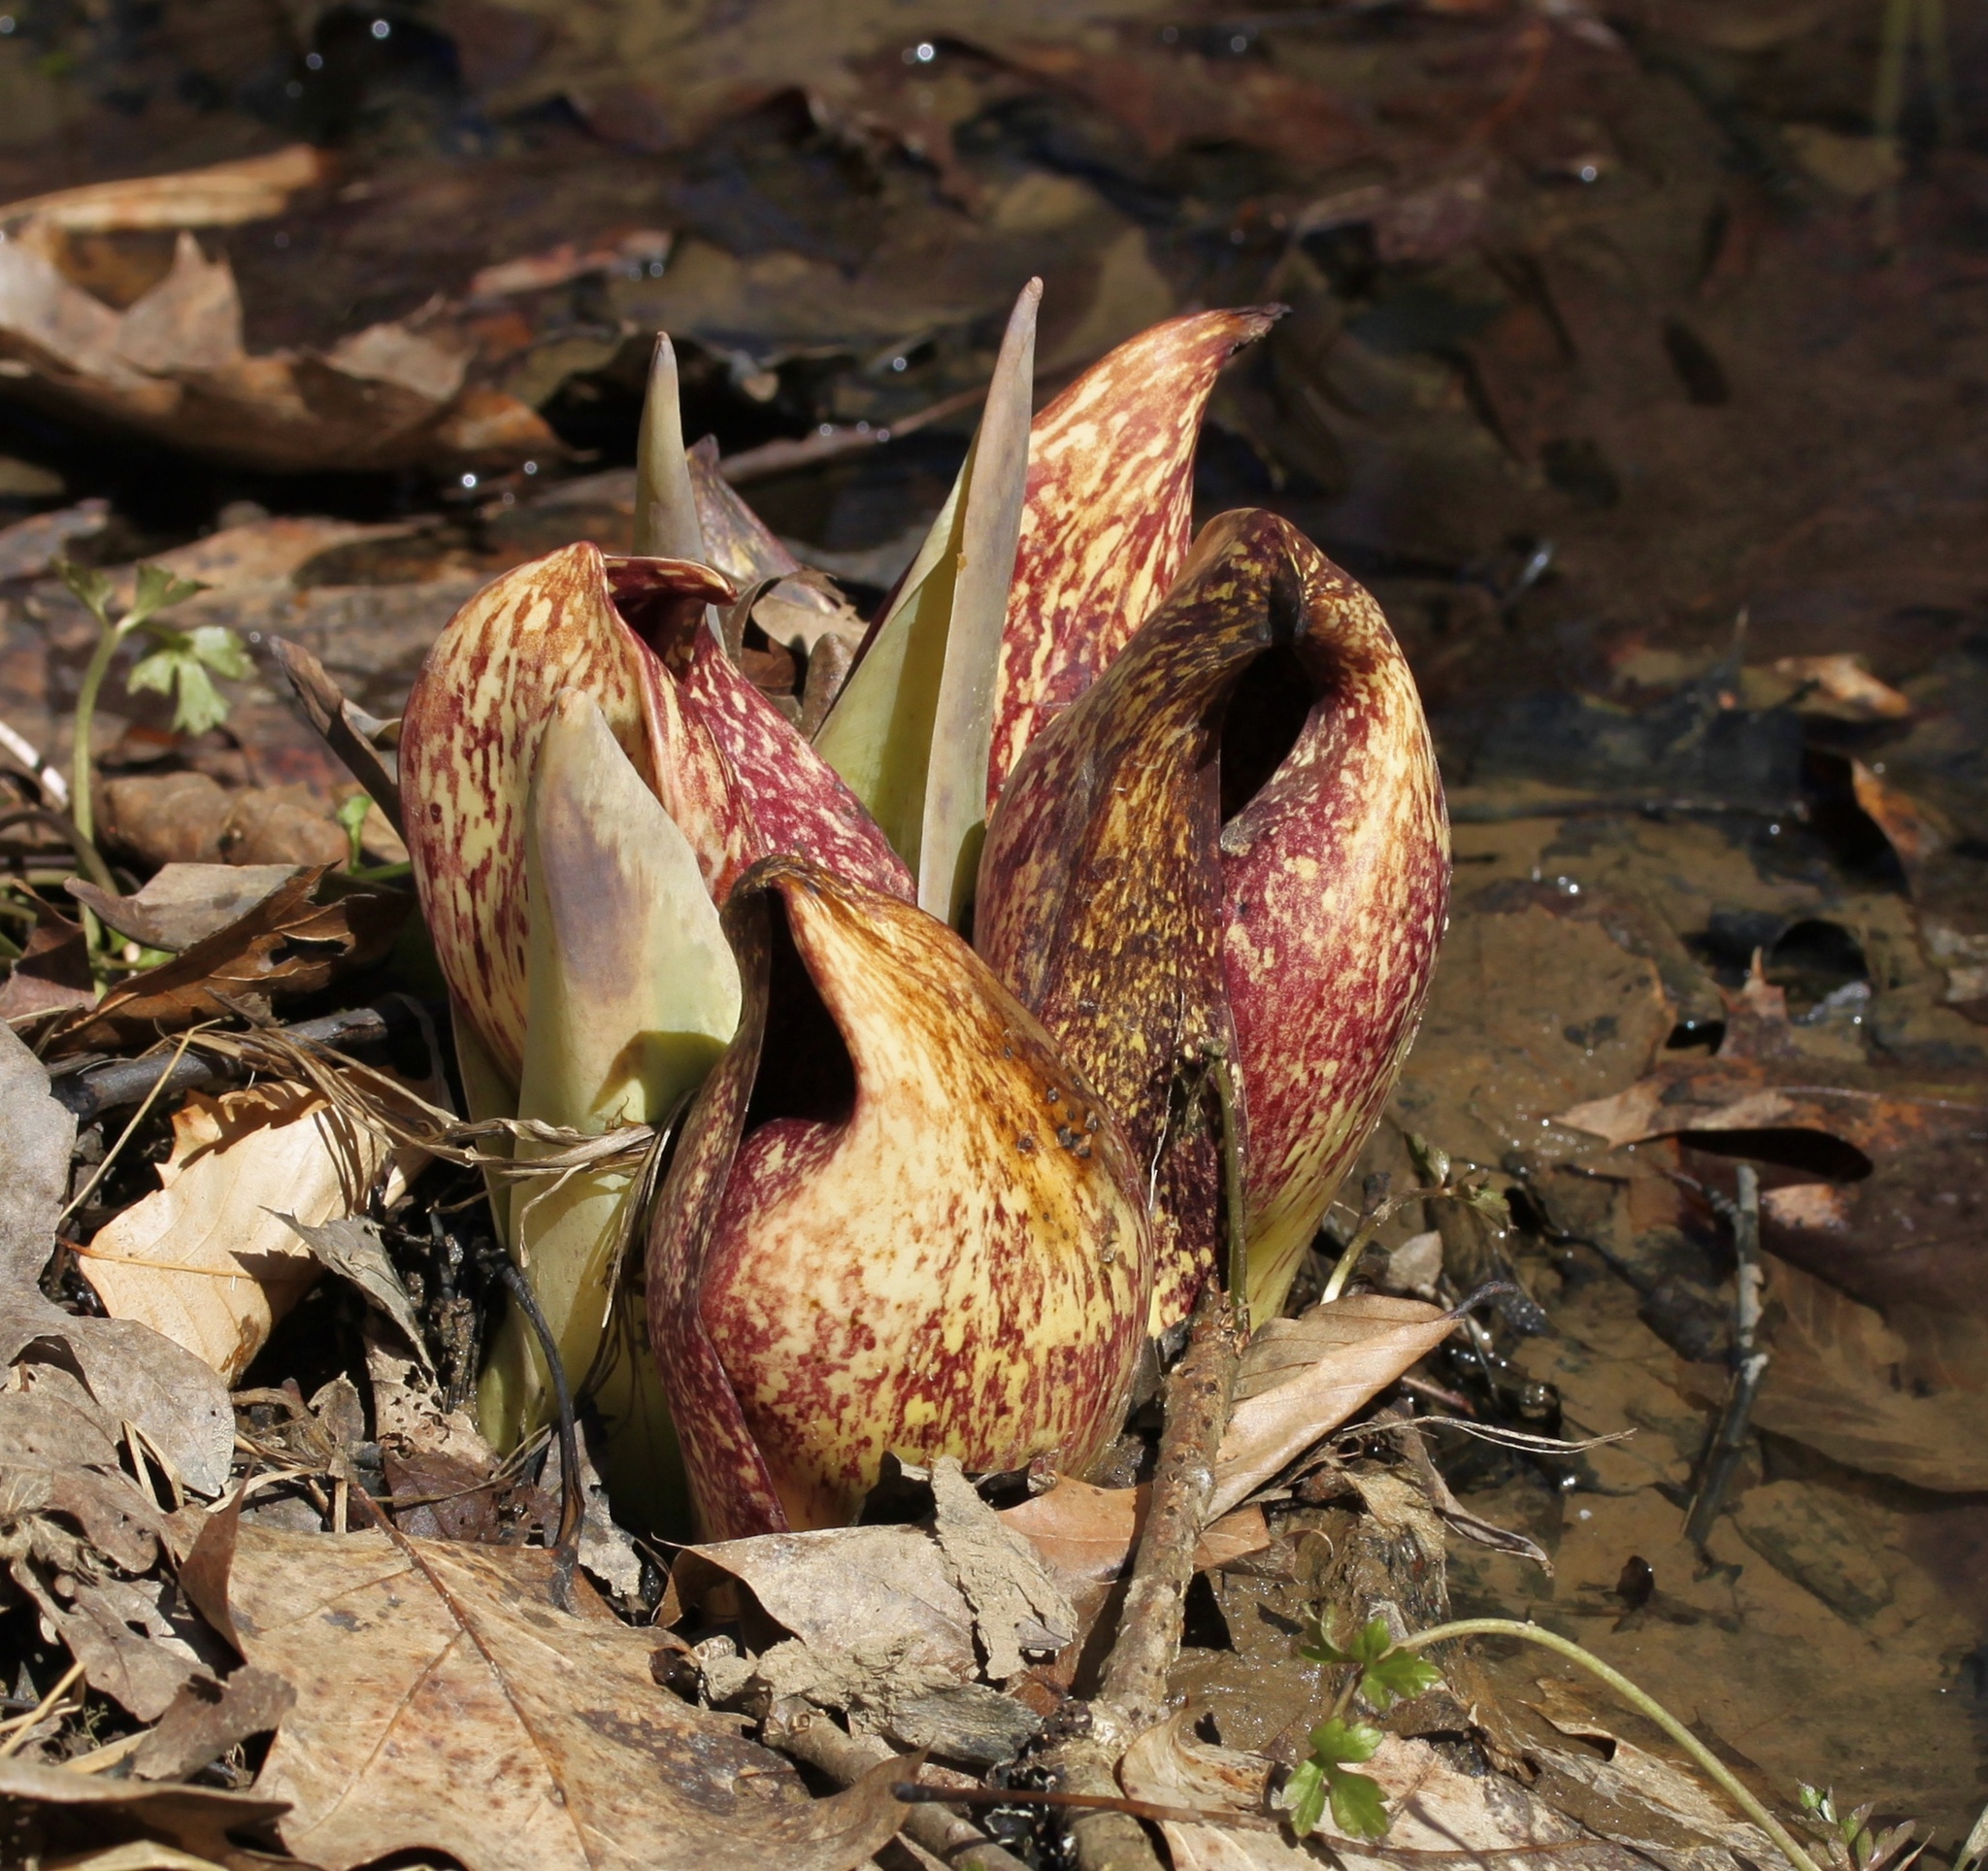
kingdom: Plantae
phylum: Tracheophyta
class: Liliopsida
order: Alismatales
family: Araceae
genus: Symplocarpus
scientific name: Symplocarpus foetidus
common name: Eastern skunk cabbage
